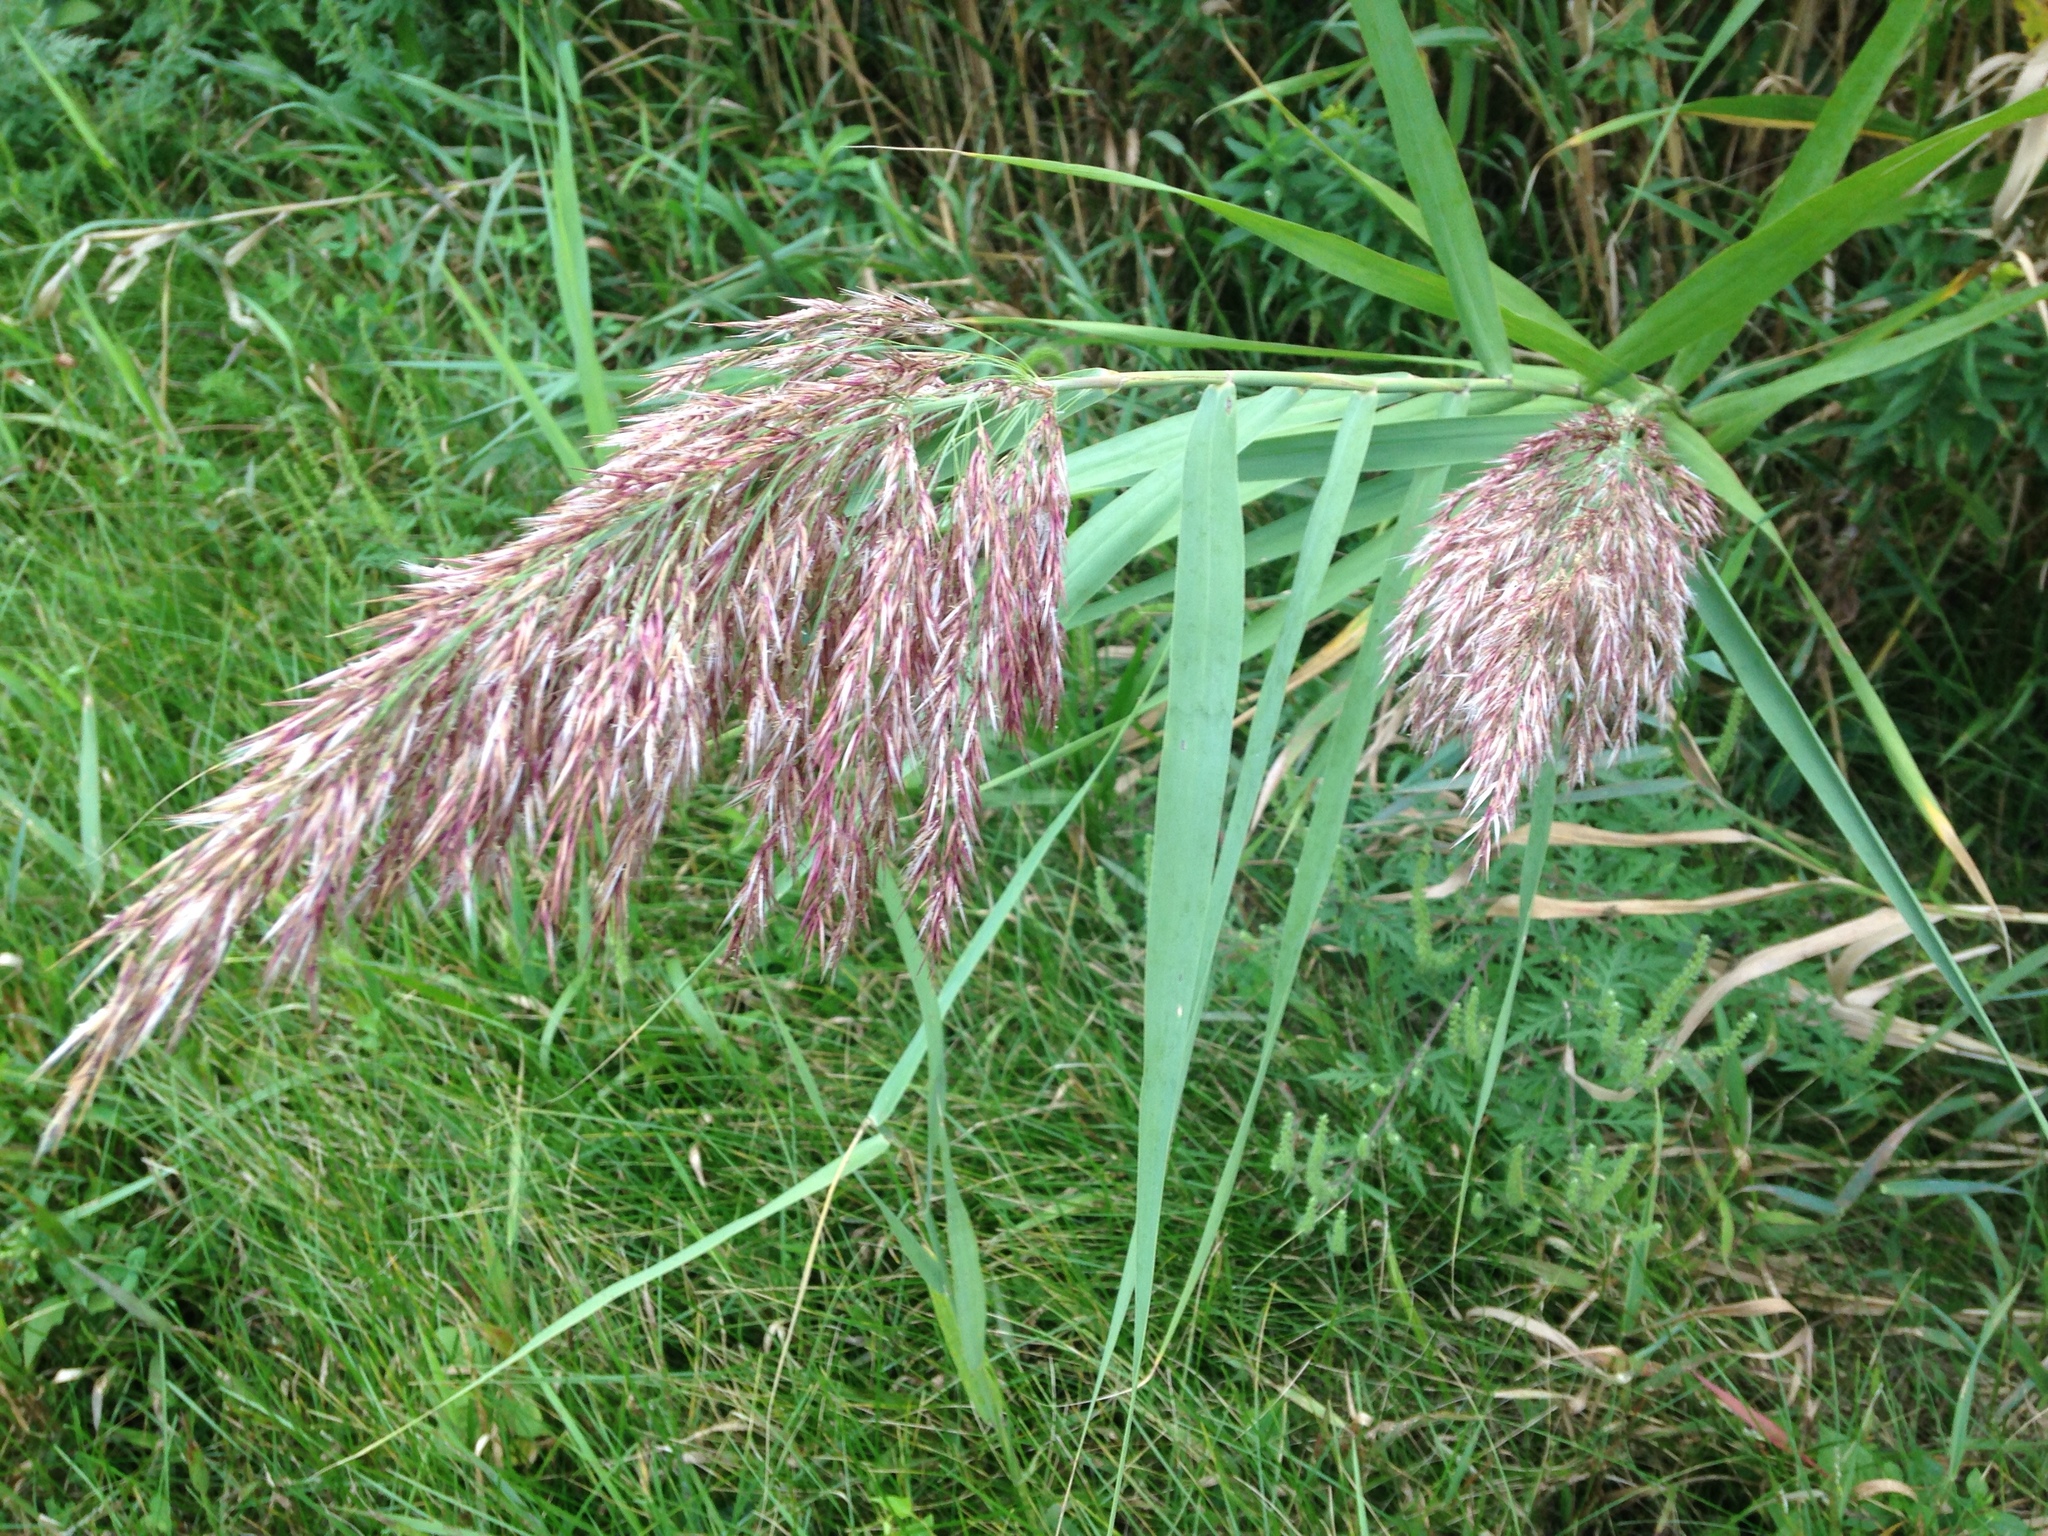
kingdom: Plantae
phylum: Tracheophyta
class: Liliopsida
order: Poales
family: Poaceae
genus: Phragmites
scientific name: Phragmites australis
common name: Common reed
